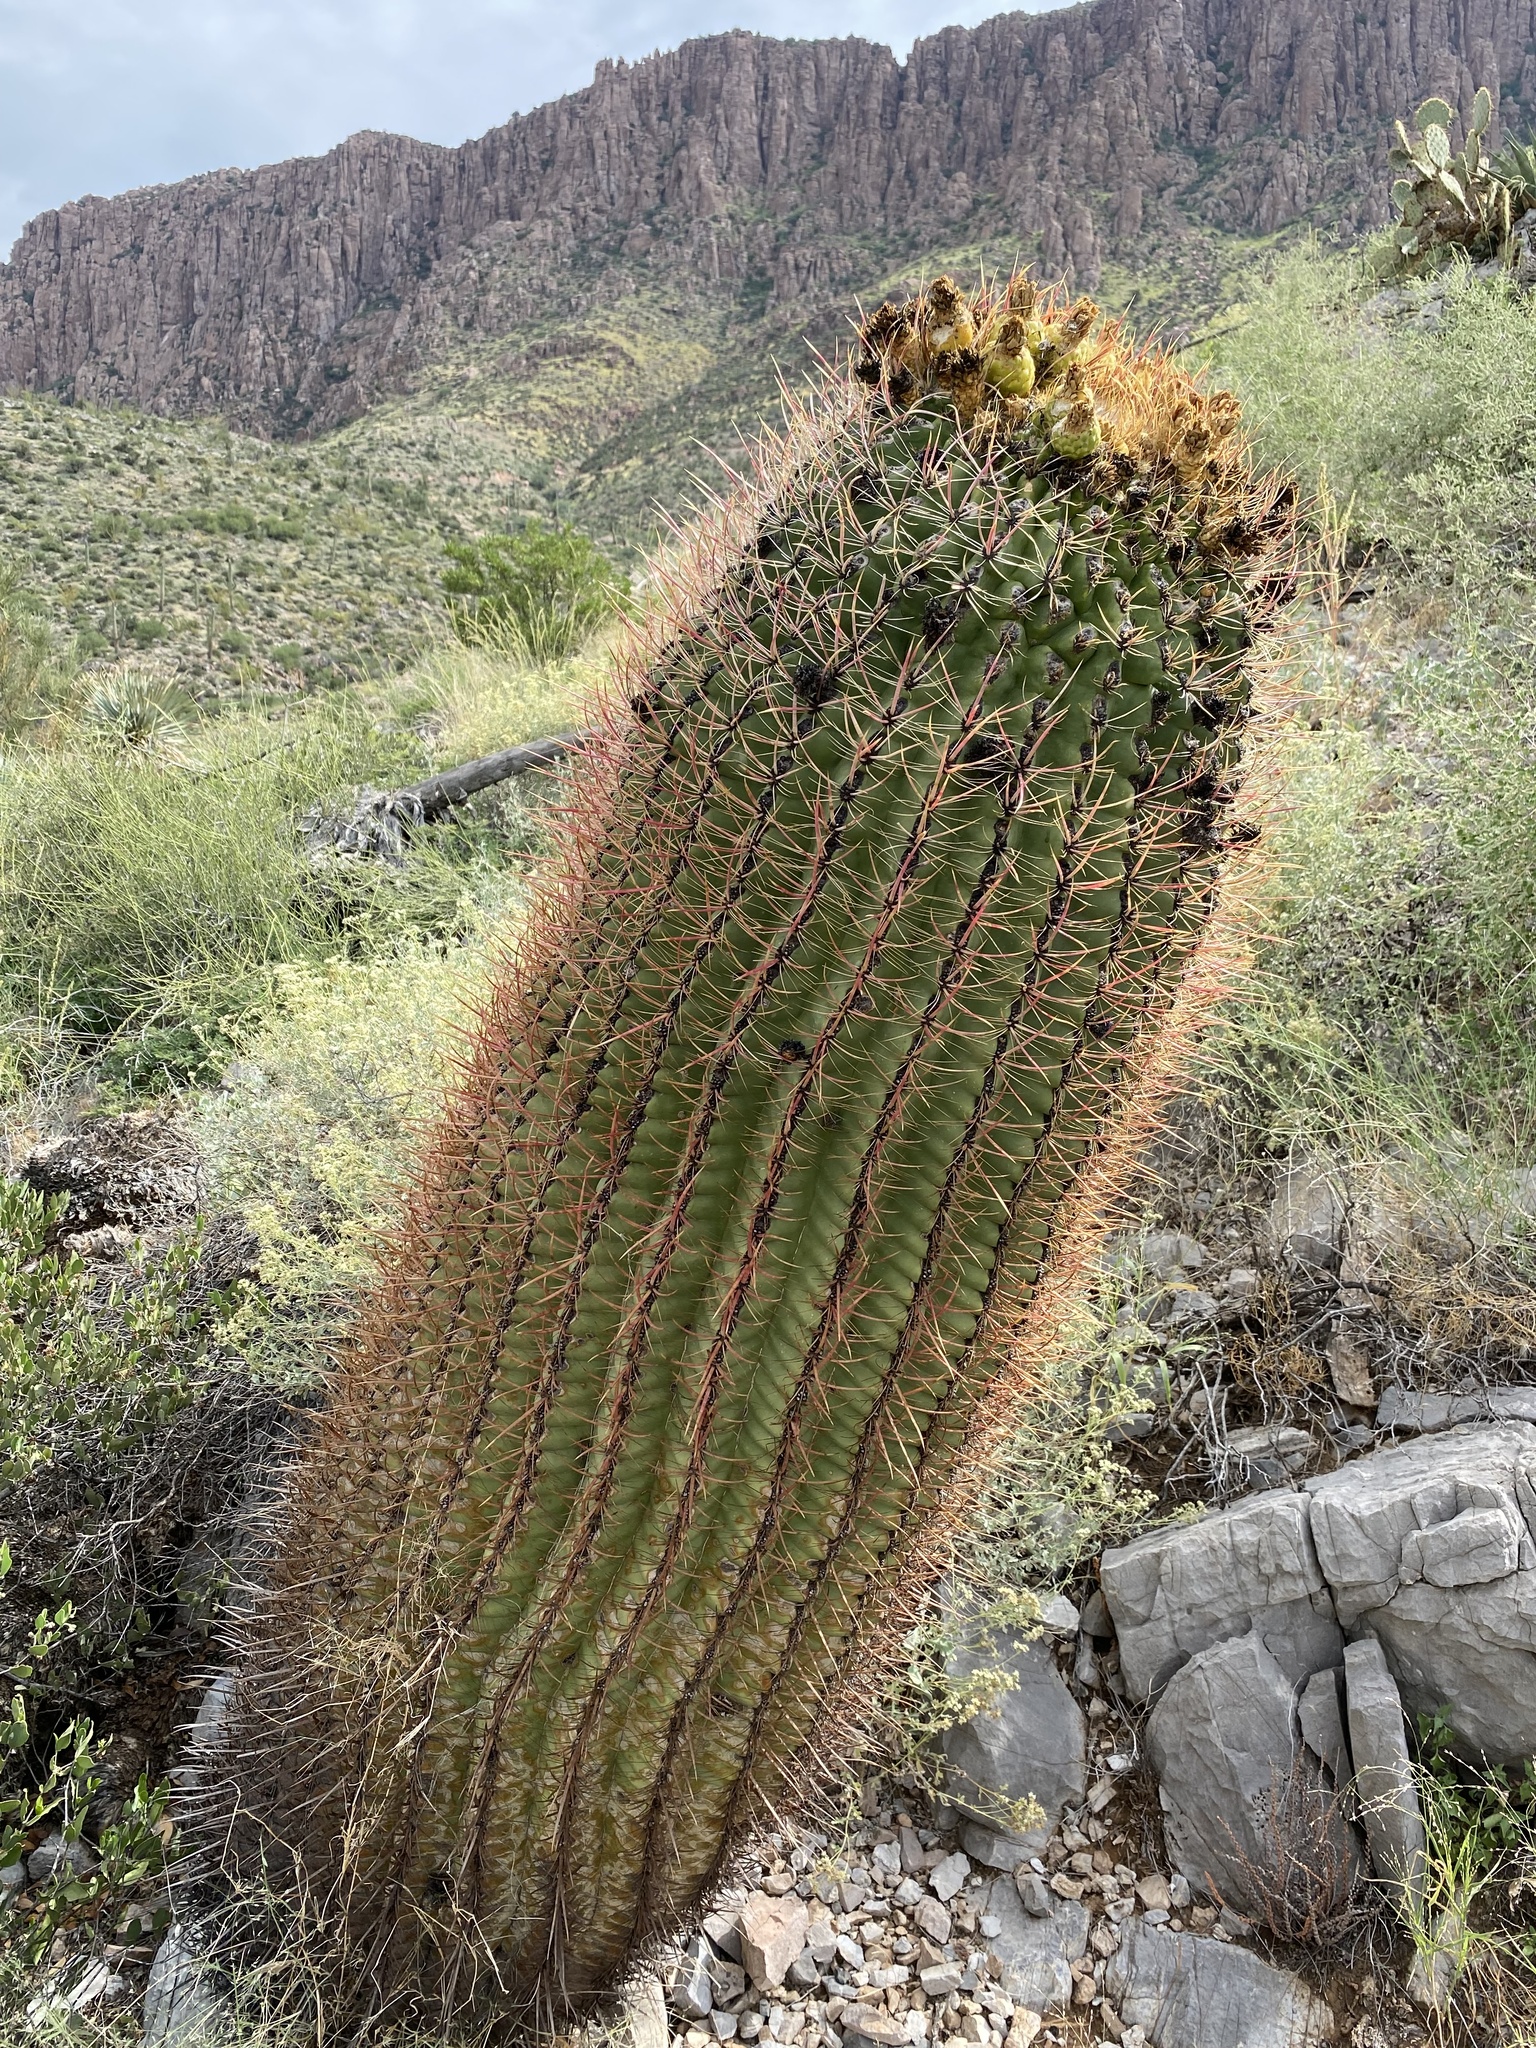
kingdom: Plantae
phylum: Tracheophyta
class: Magnoliopsida
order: Caryophyllales
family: Cactaceae
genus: Ferocactus
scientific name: Ferocactus cylindraceus
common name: California barrel cactus
